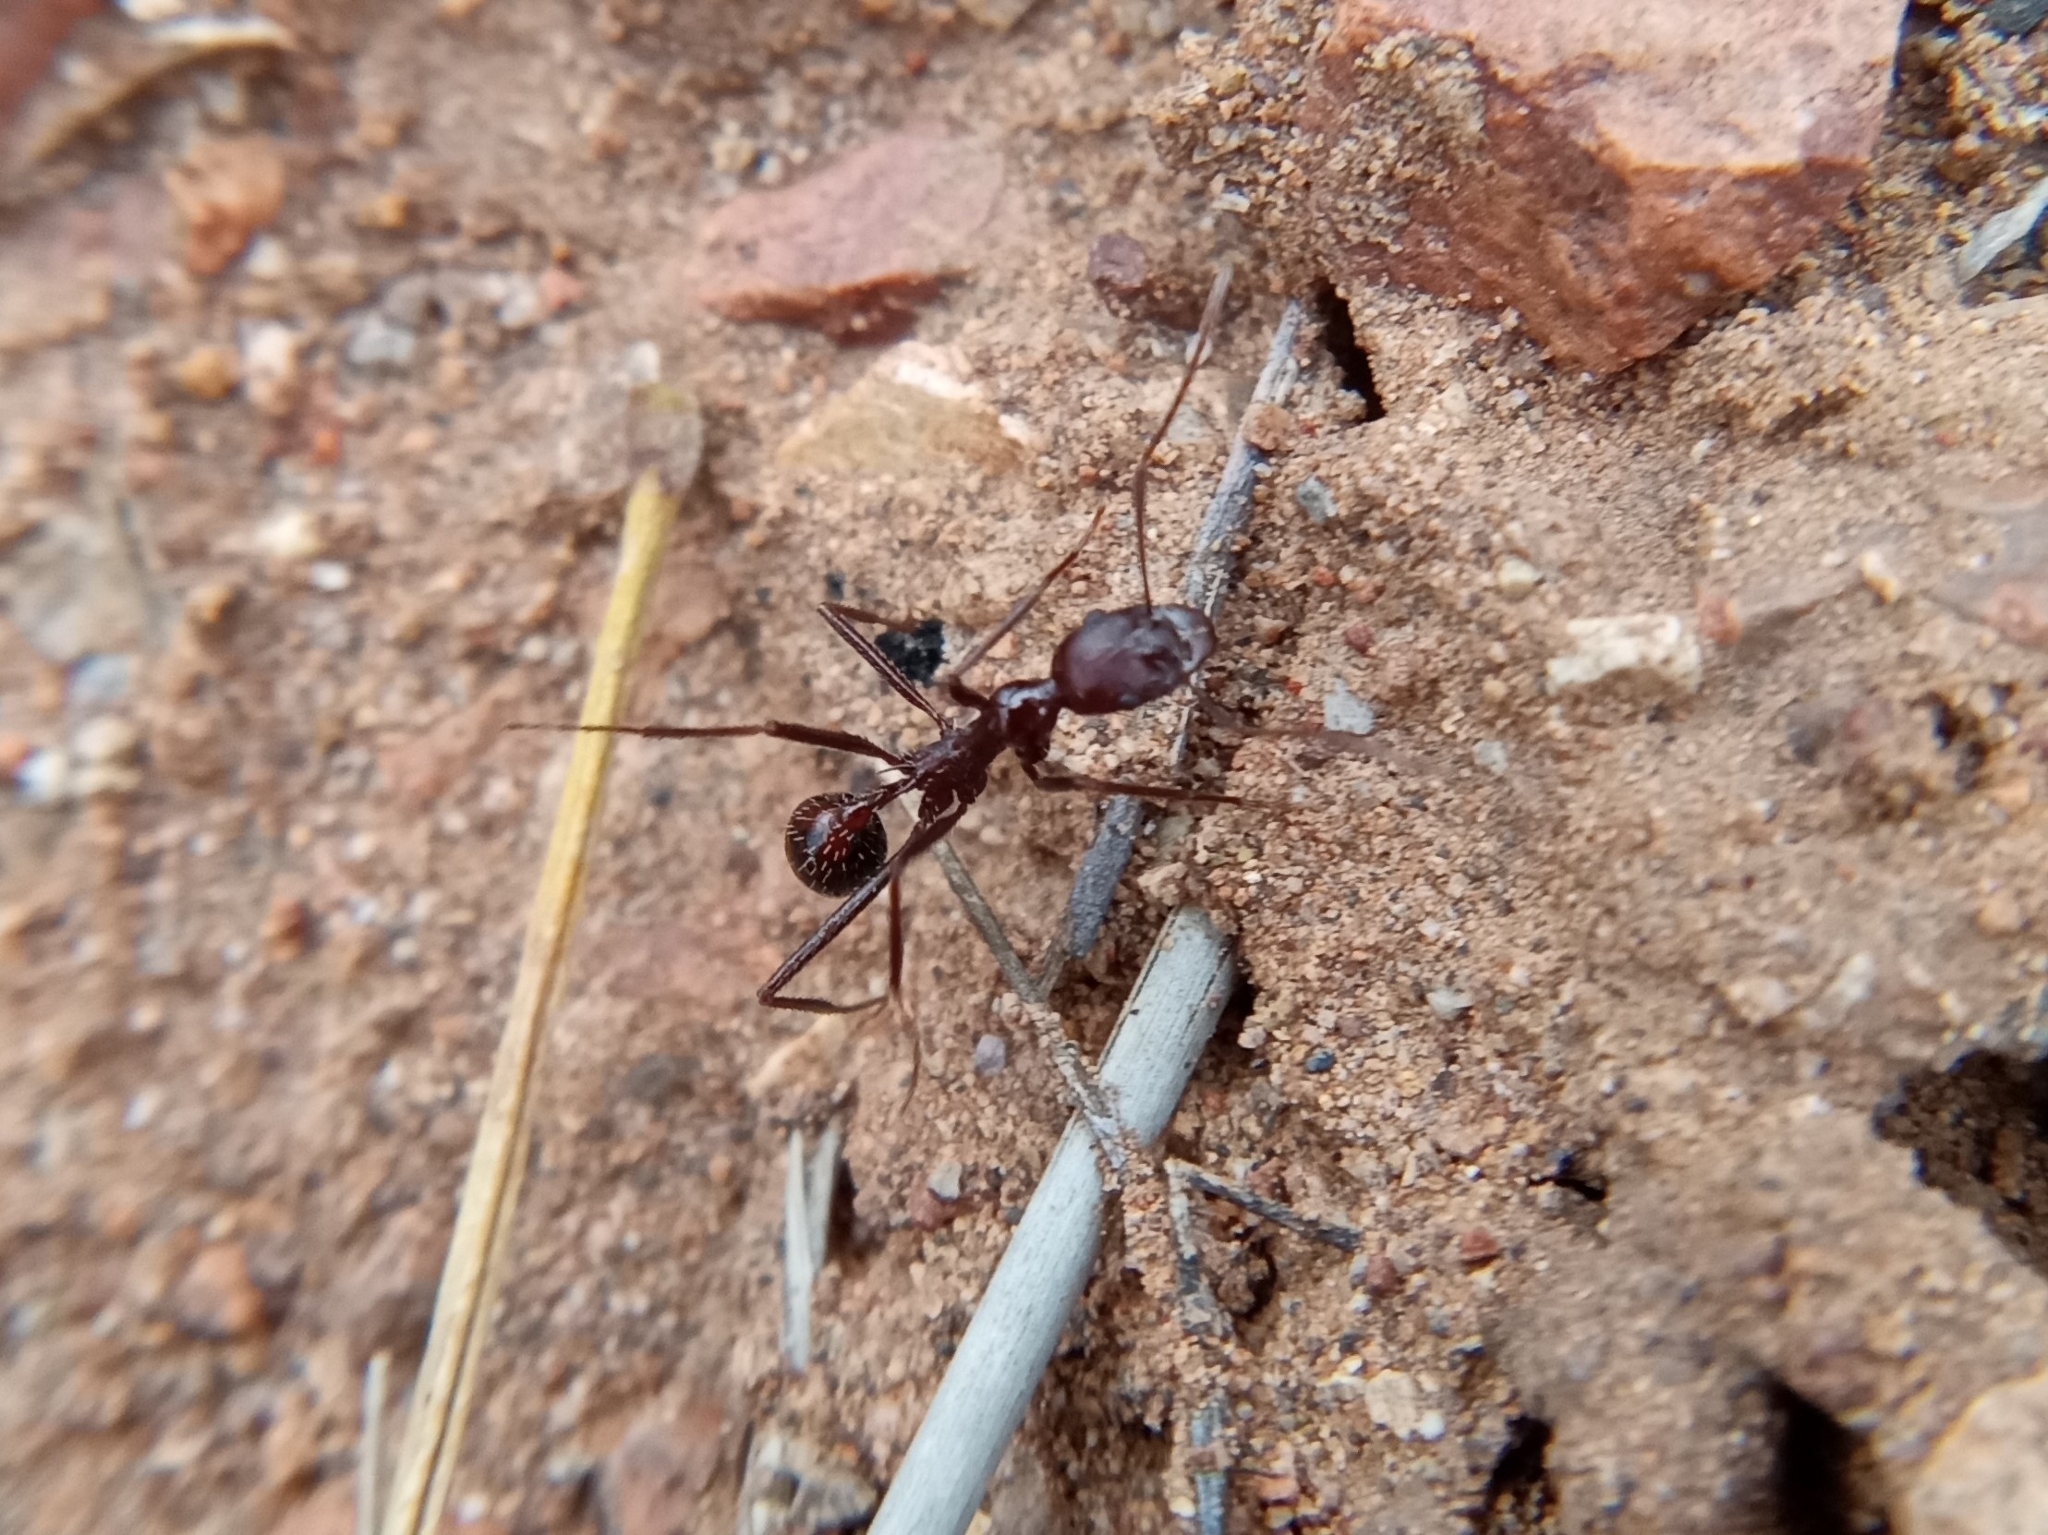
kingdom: Animalia
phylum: Arthropoda
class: Insecta
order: Hymenoptera
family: Formicidae
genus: Novomessor
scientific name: Novomessor cockerelli
